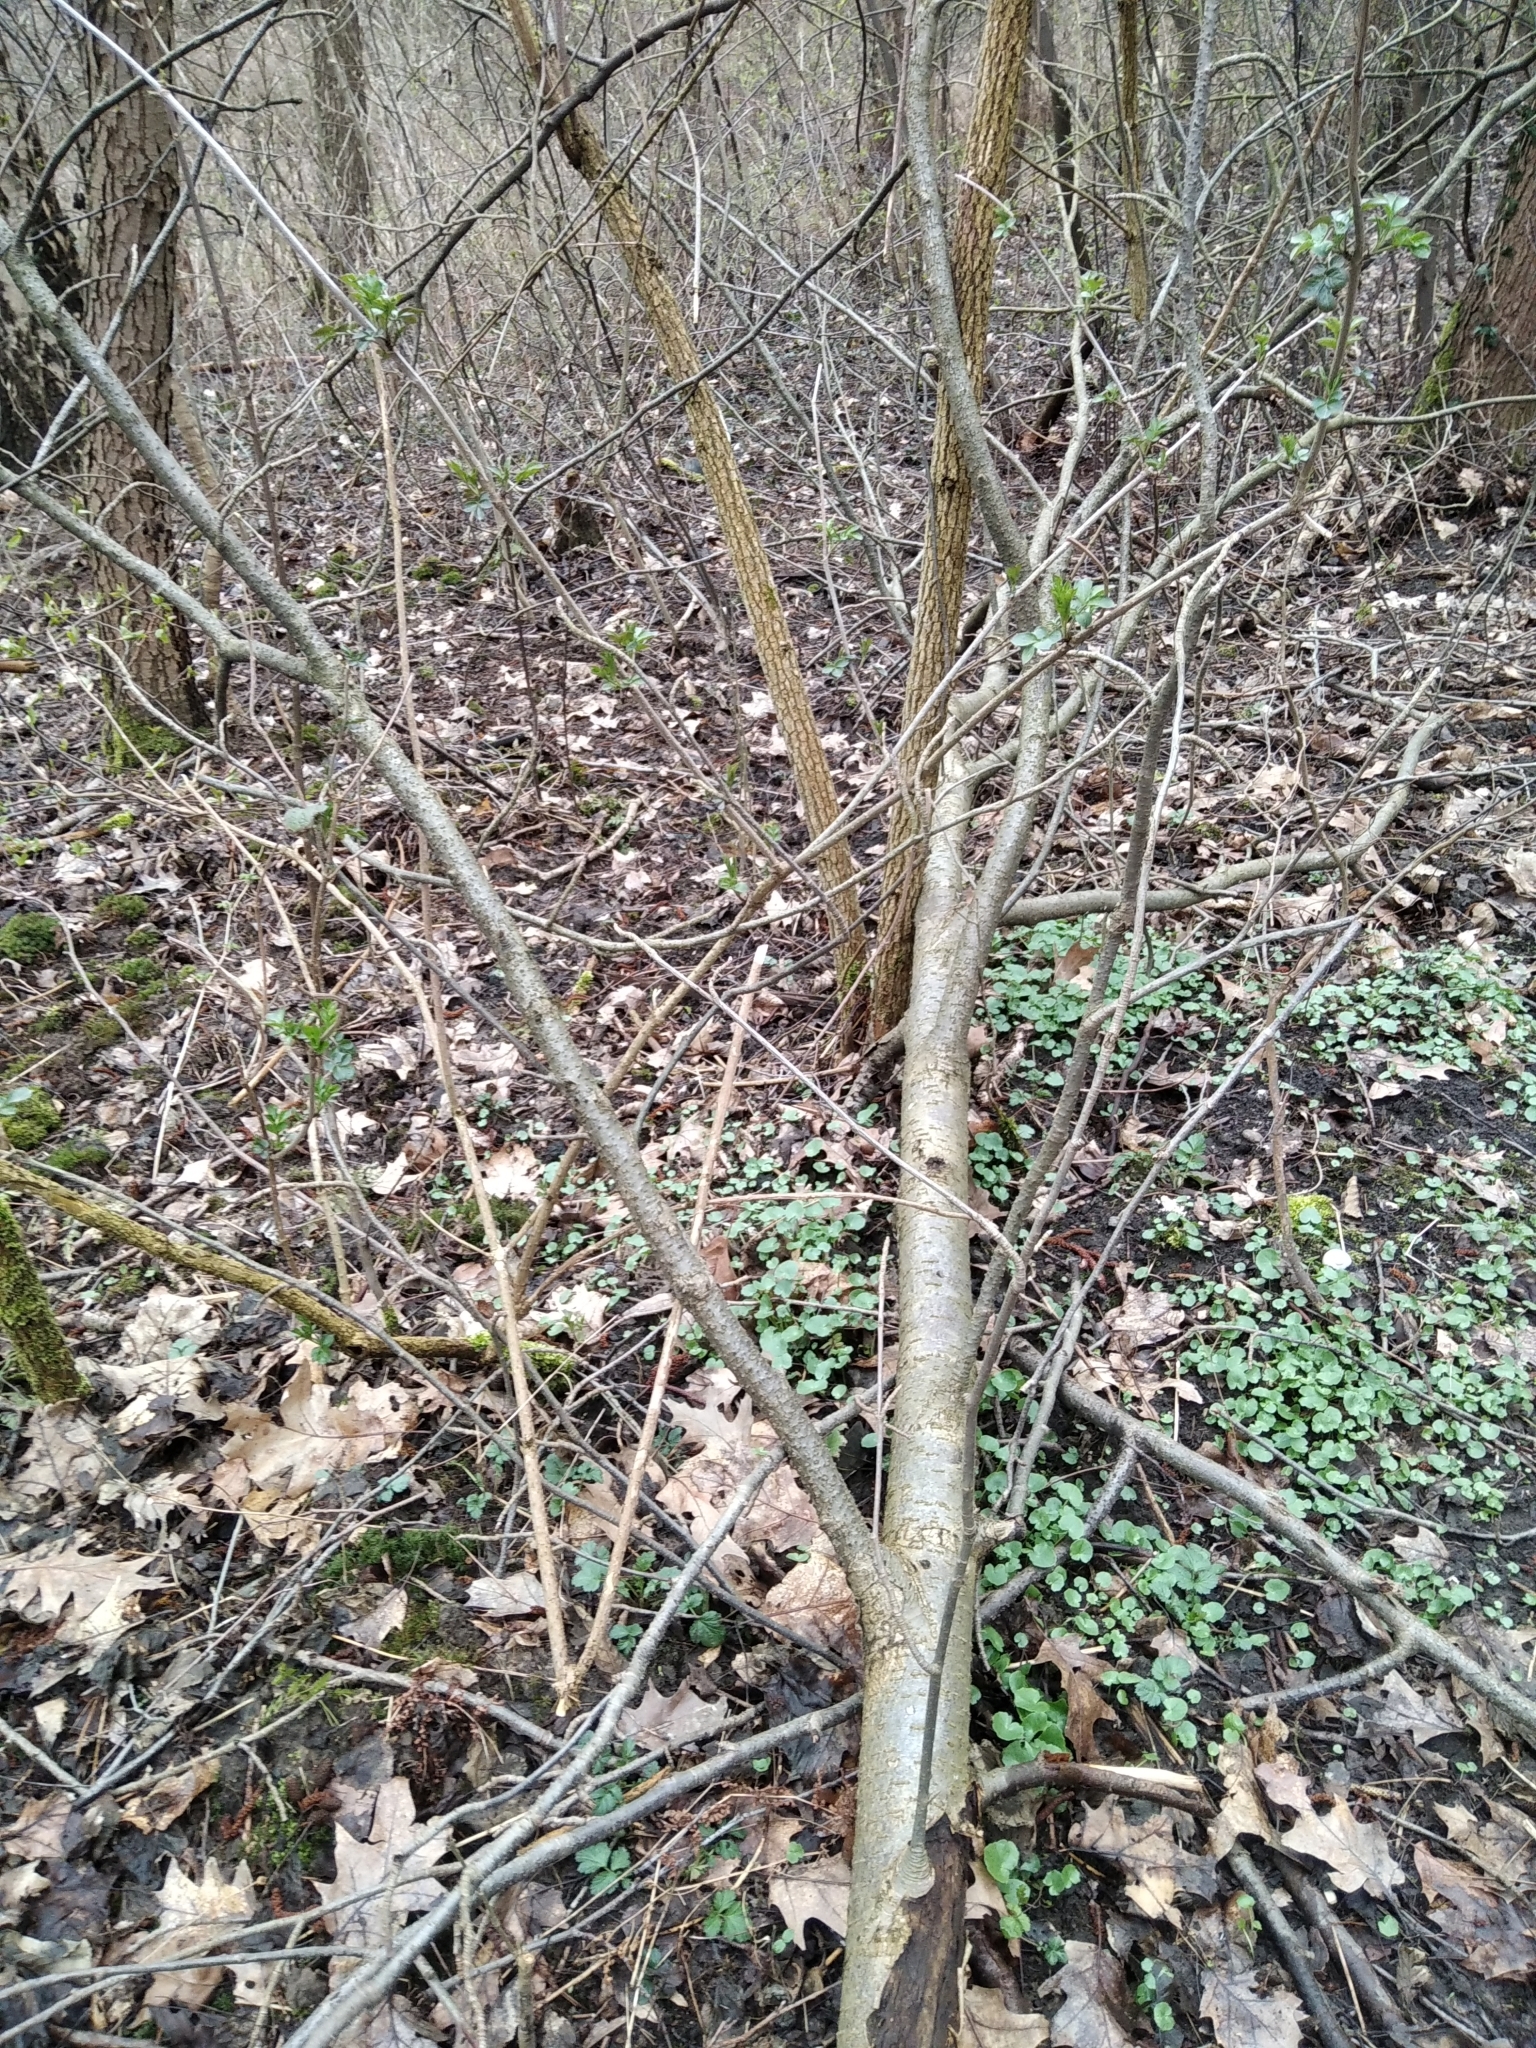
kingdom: Plantae
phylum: Tracheophyta
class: Magnoliopsida
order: Dipsacales
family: Viburnaceae
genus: Sambucus
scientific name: Sambucus nigra
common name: Elder
